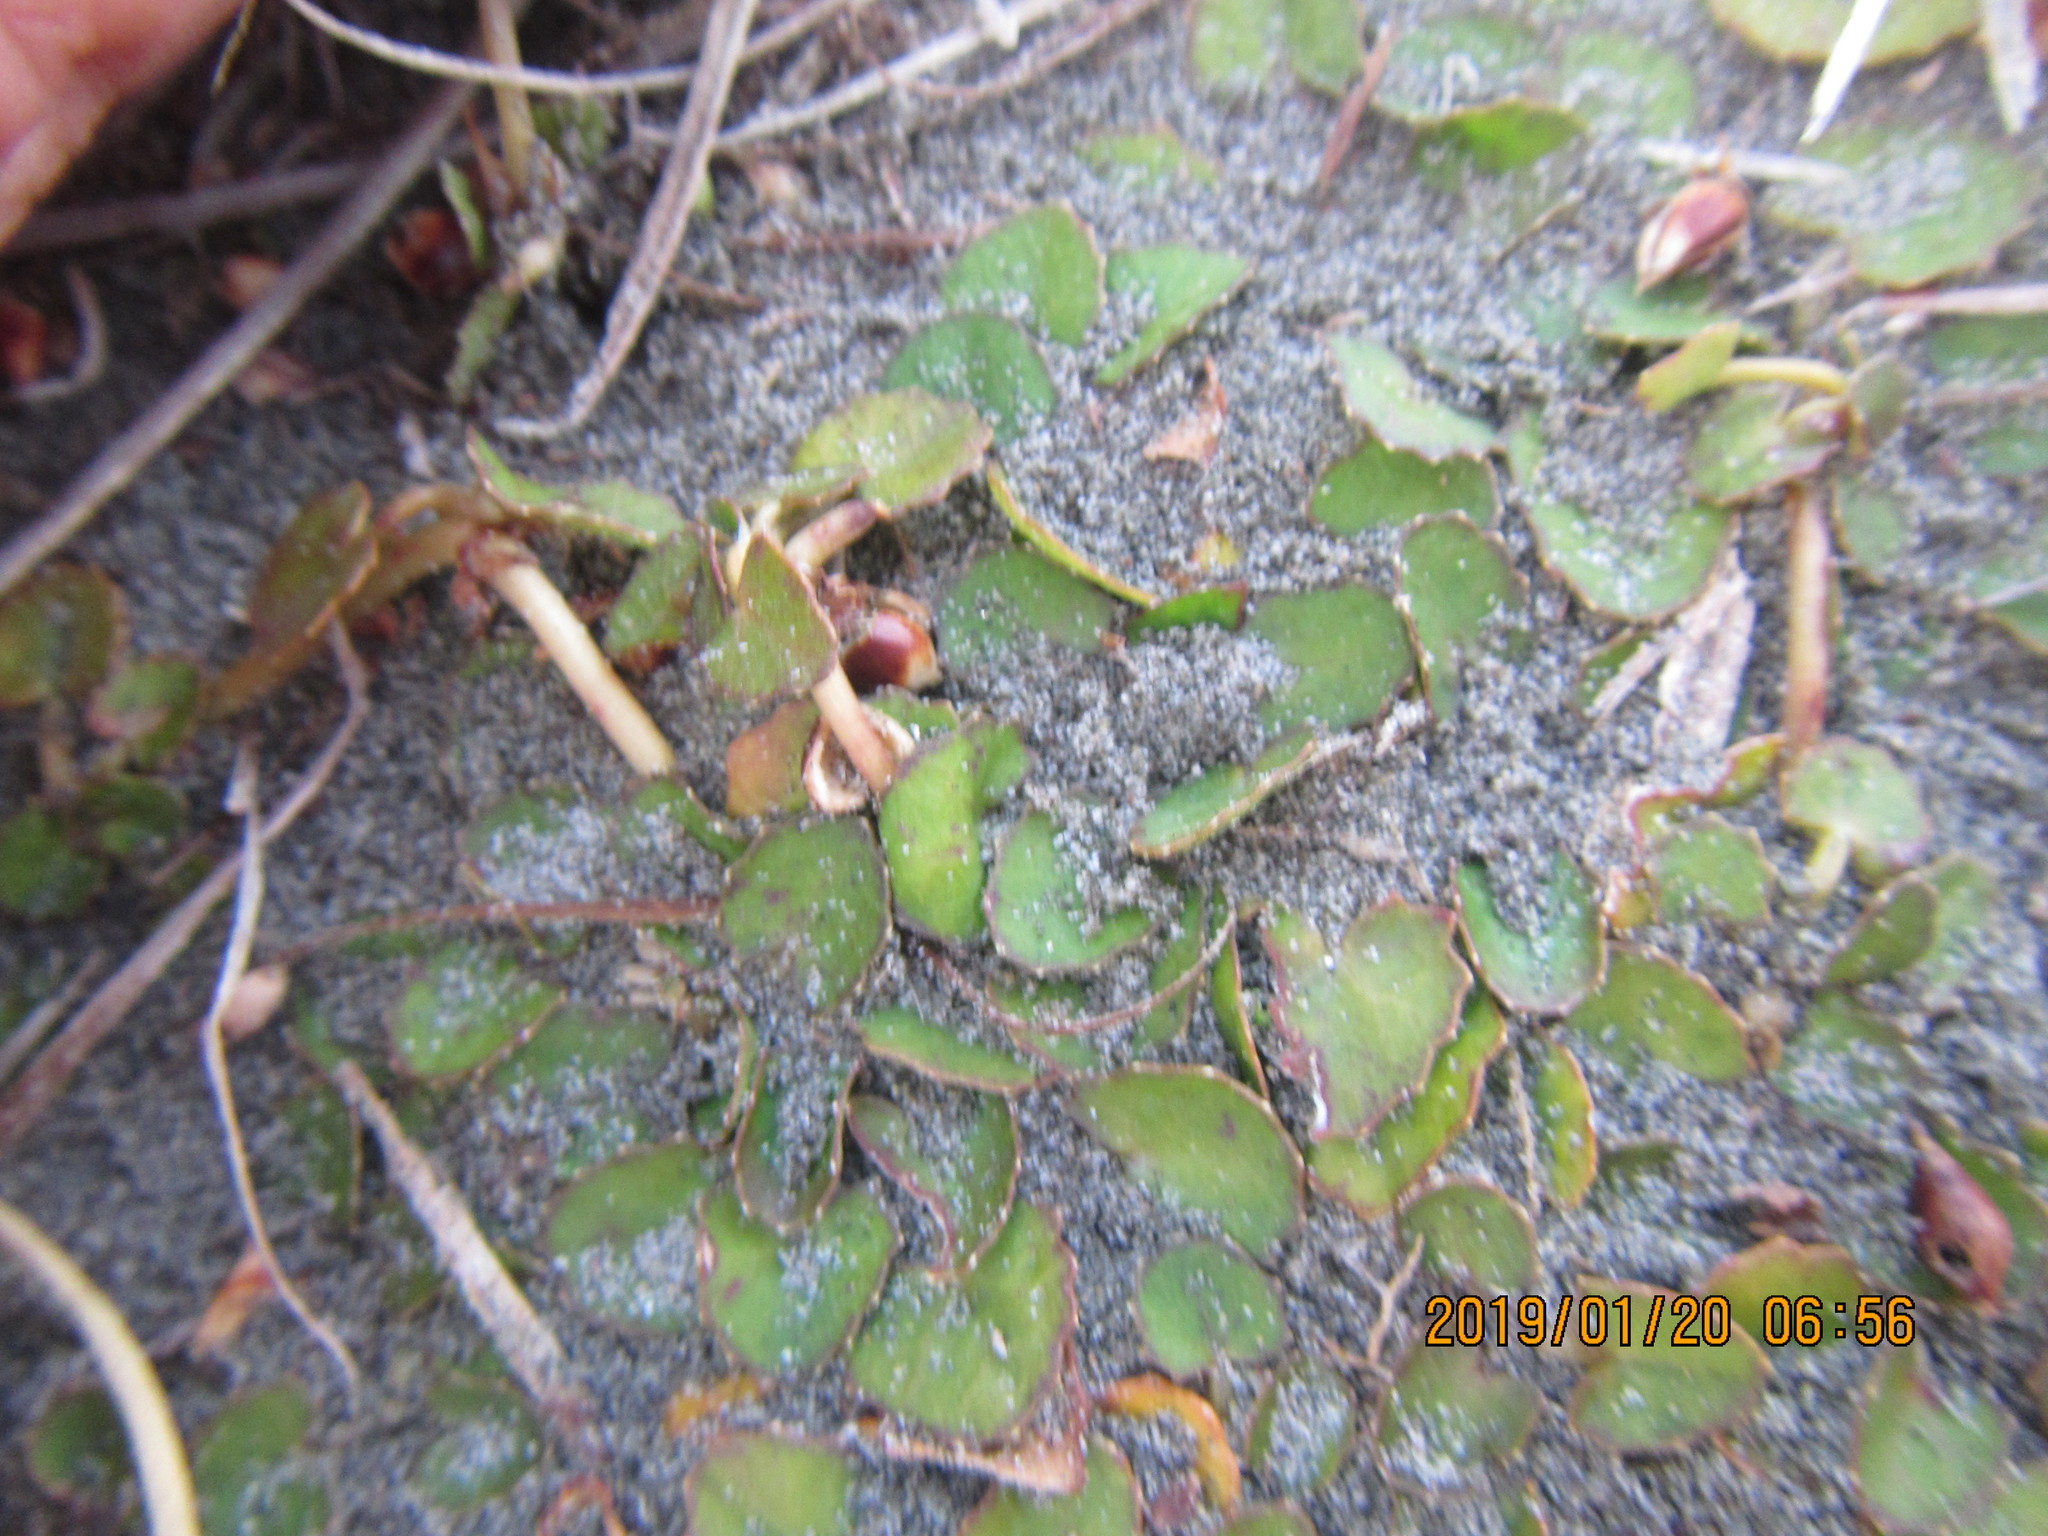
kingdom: Plantae
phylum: Tracheophyta
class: Magnoliopsida
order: Apiales
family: Apiaceae
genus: Centella
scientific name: Centella uniflora
